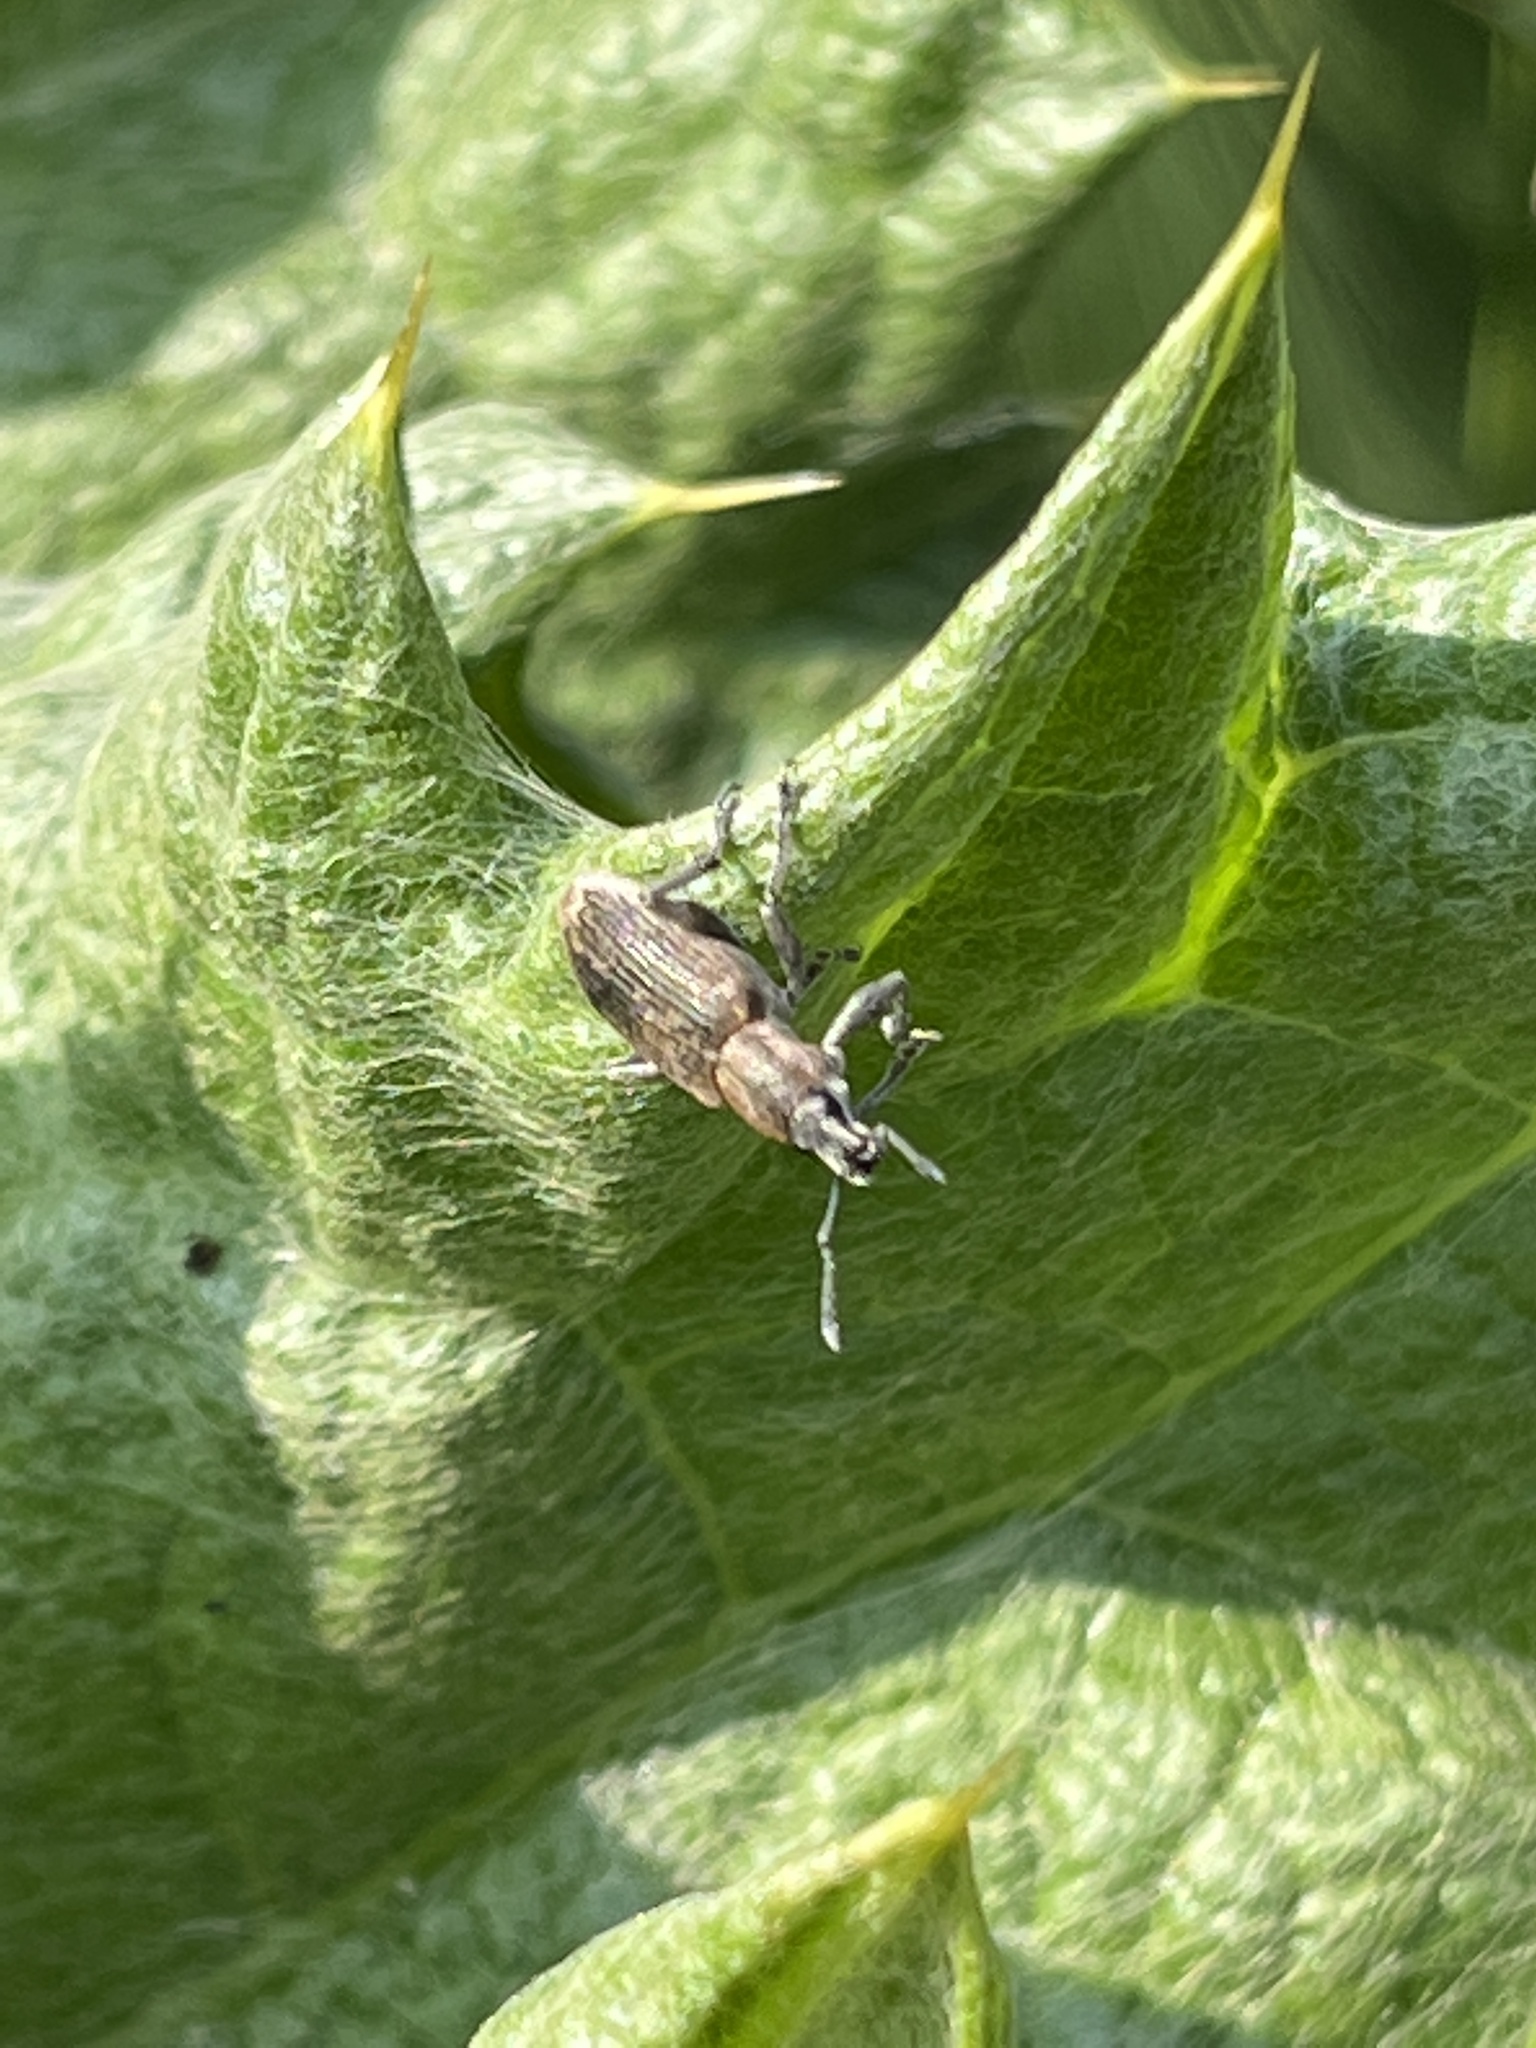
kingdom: Animalia
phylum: Arthropoda
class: Insecta
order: Coleoptera
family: Curculionidae
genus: Tanymecus
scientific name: Tanymecus palliatus
